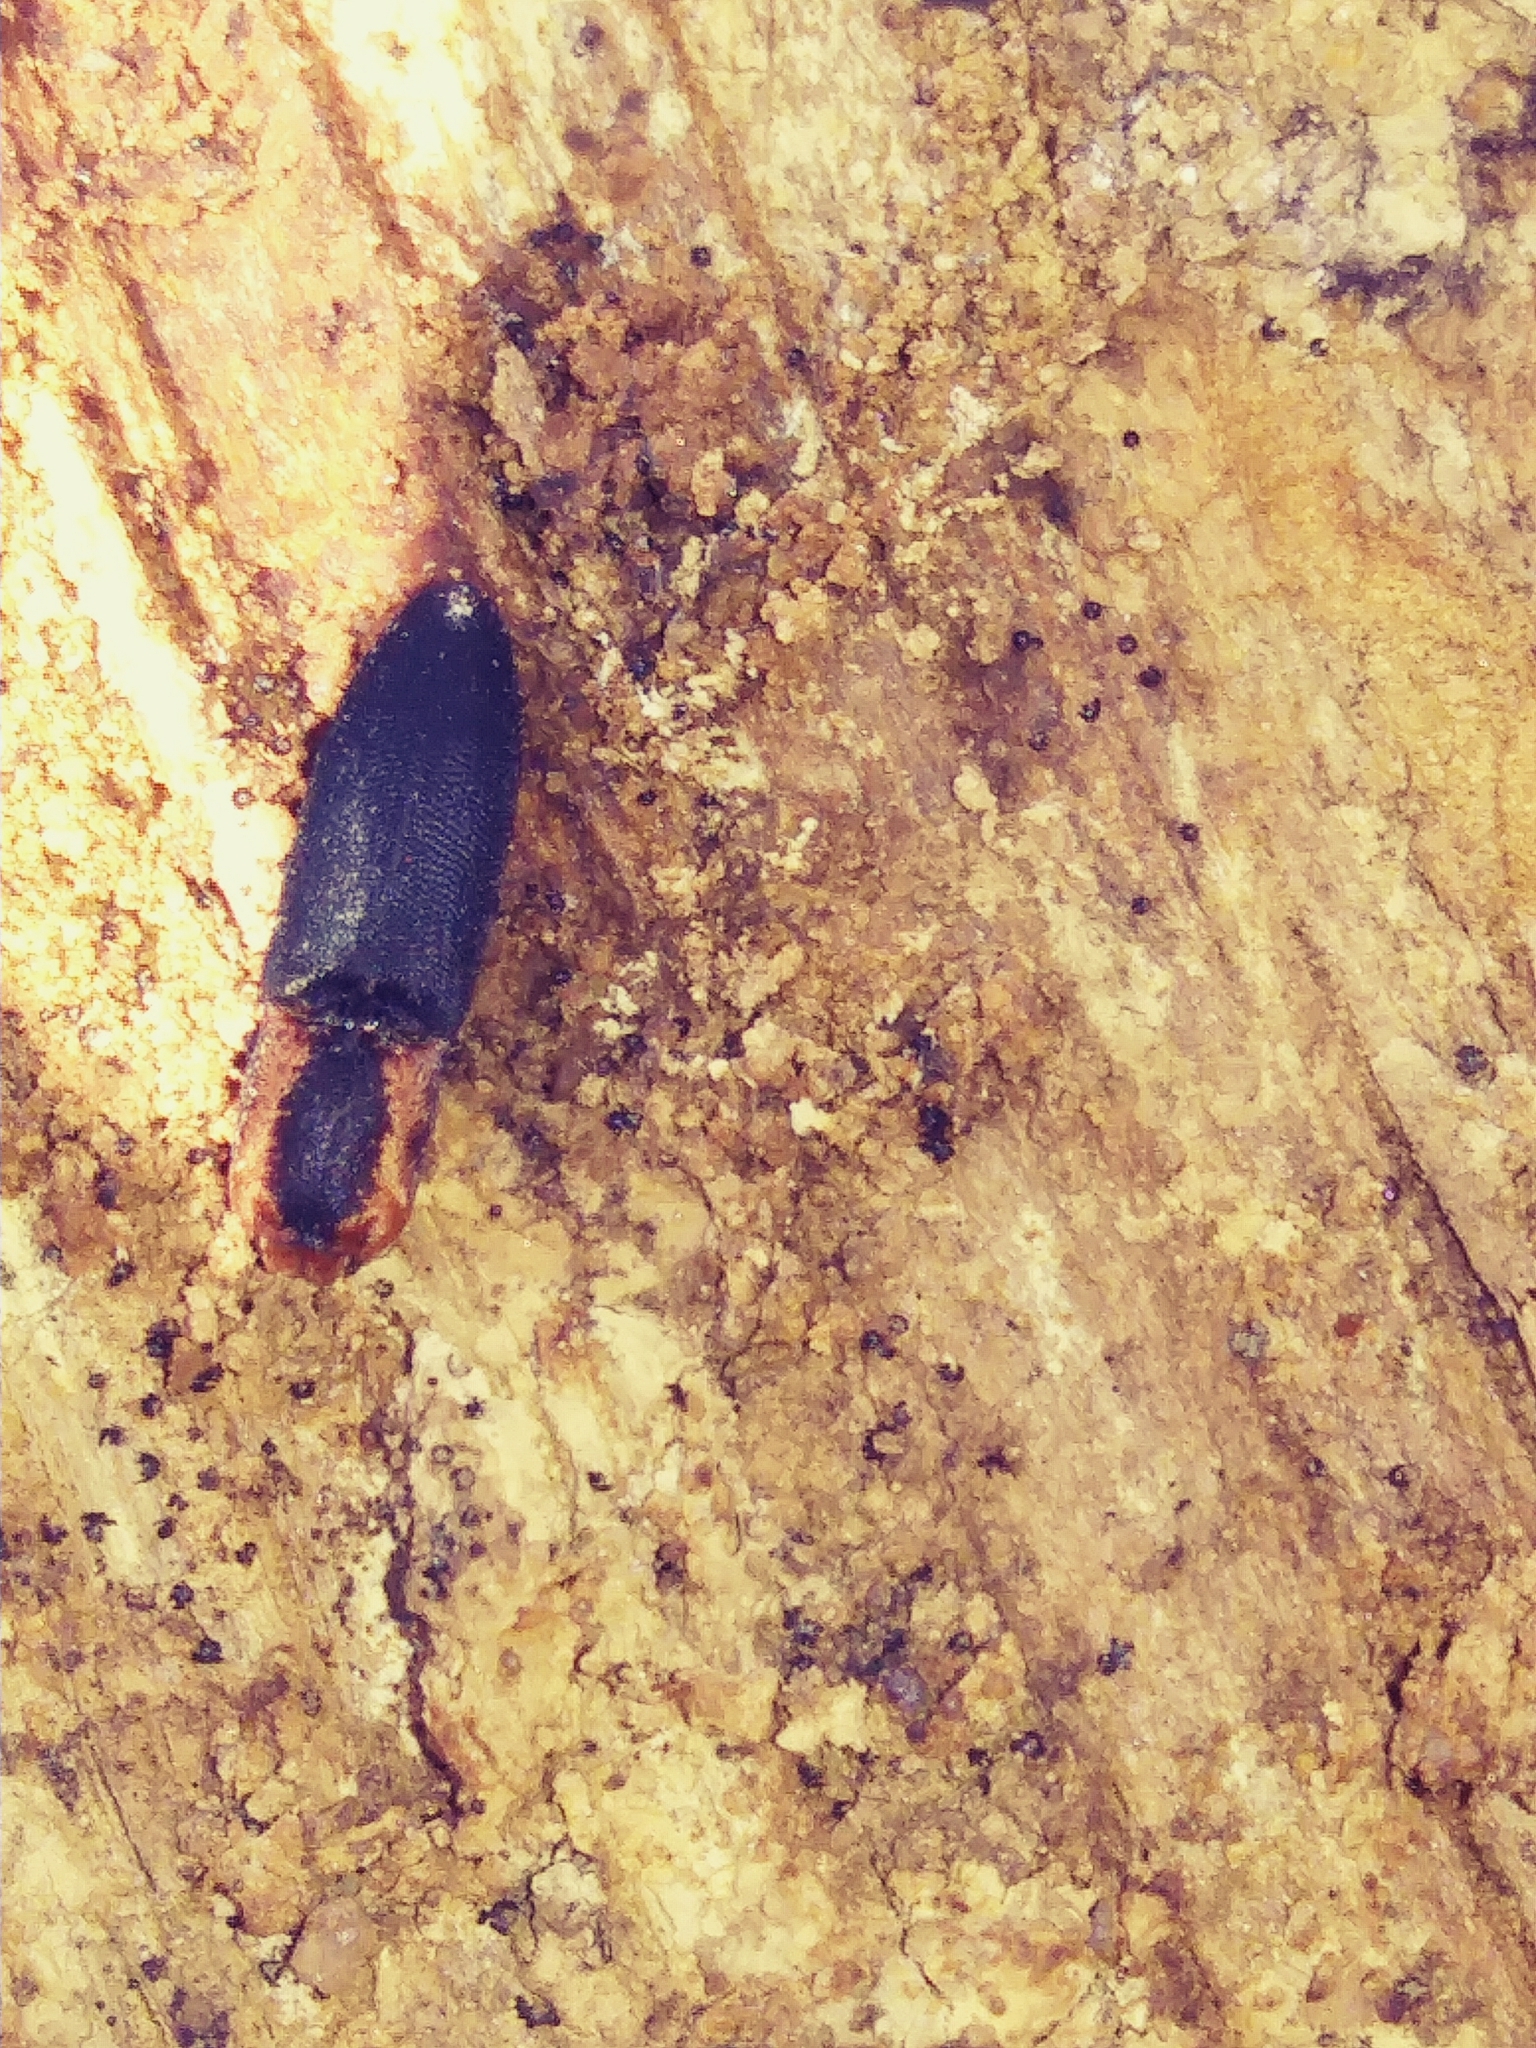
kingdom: Animalia
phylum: Arthropoda
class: Insecta
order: Coleoptera
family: Elateridae
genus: Lacon
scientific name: Lacon discoideus
